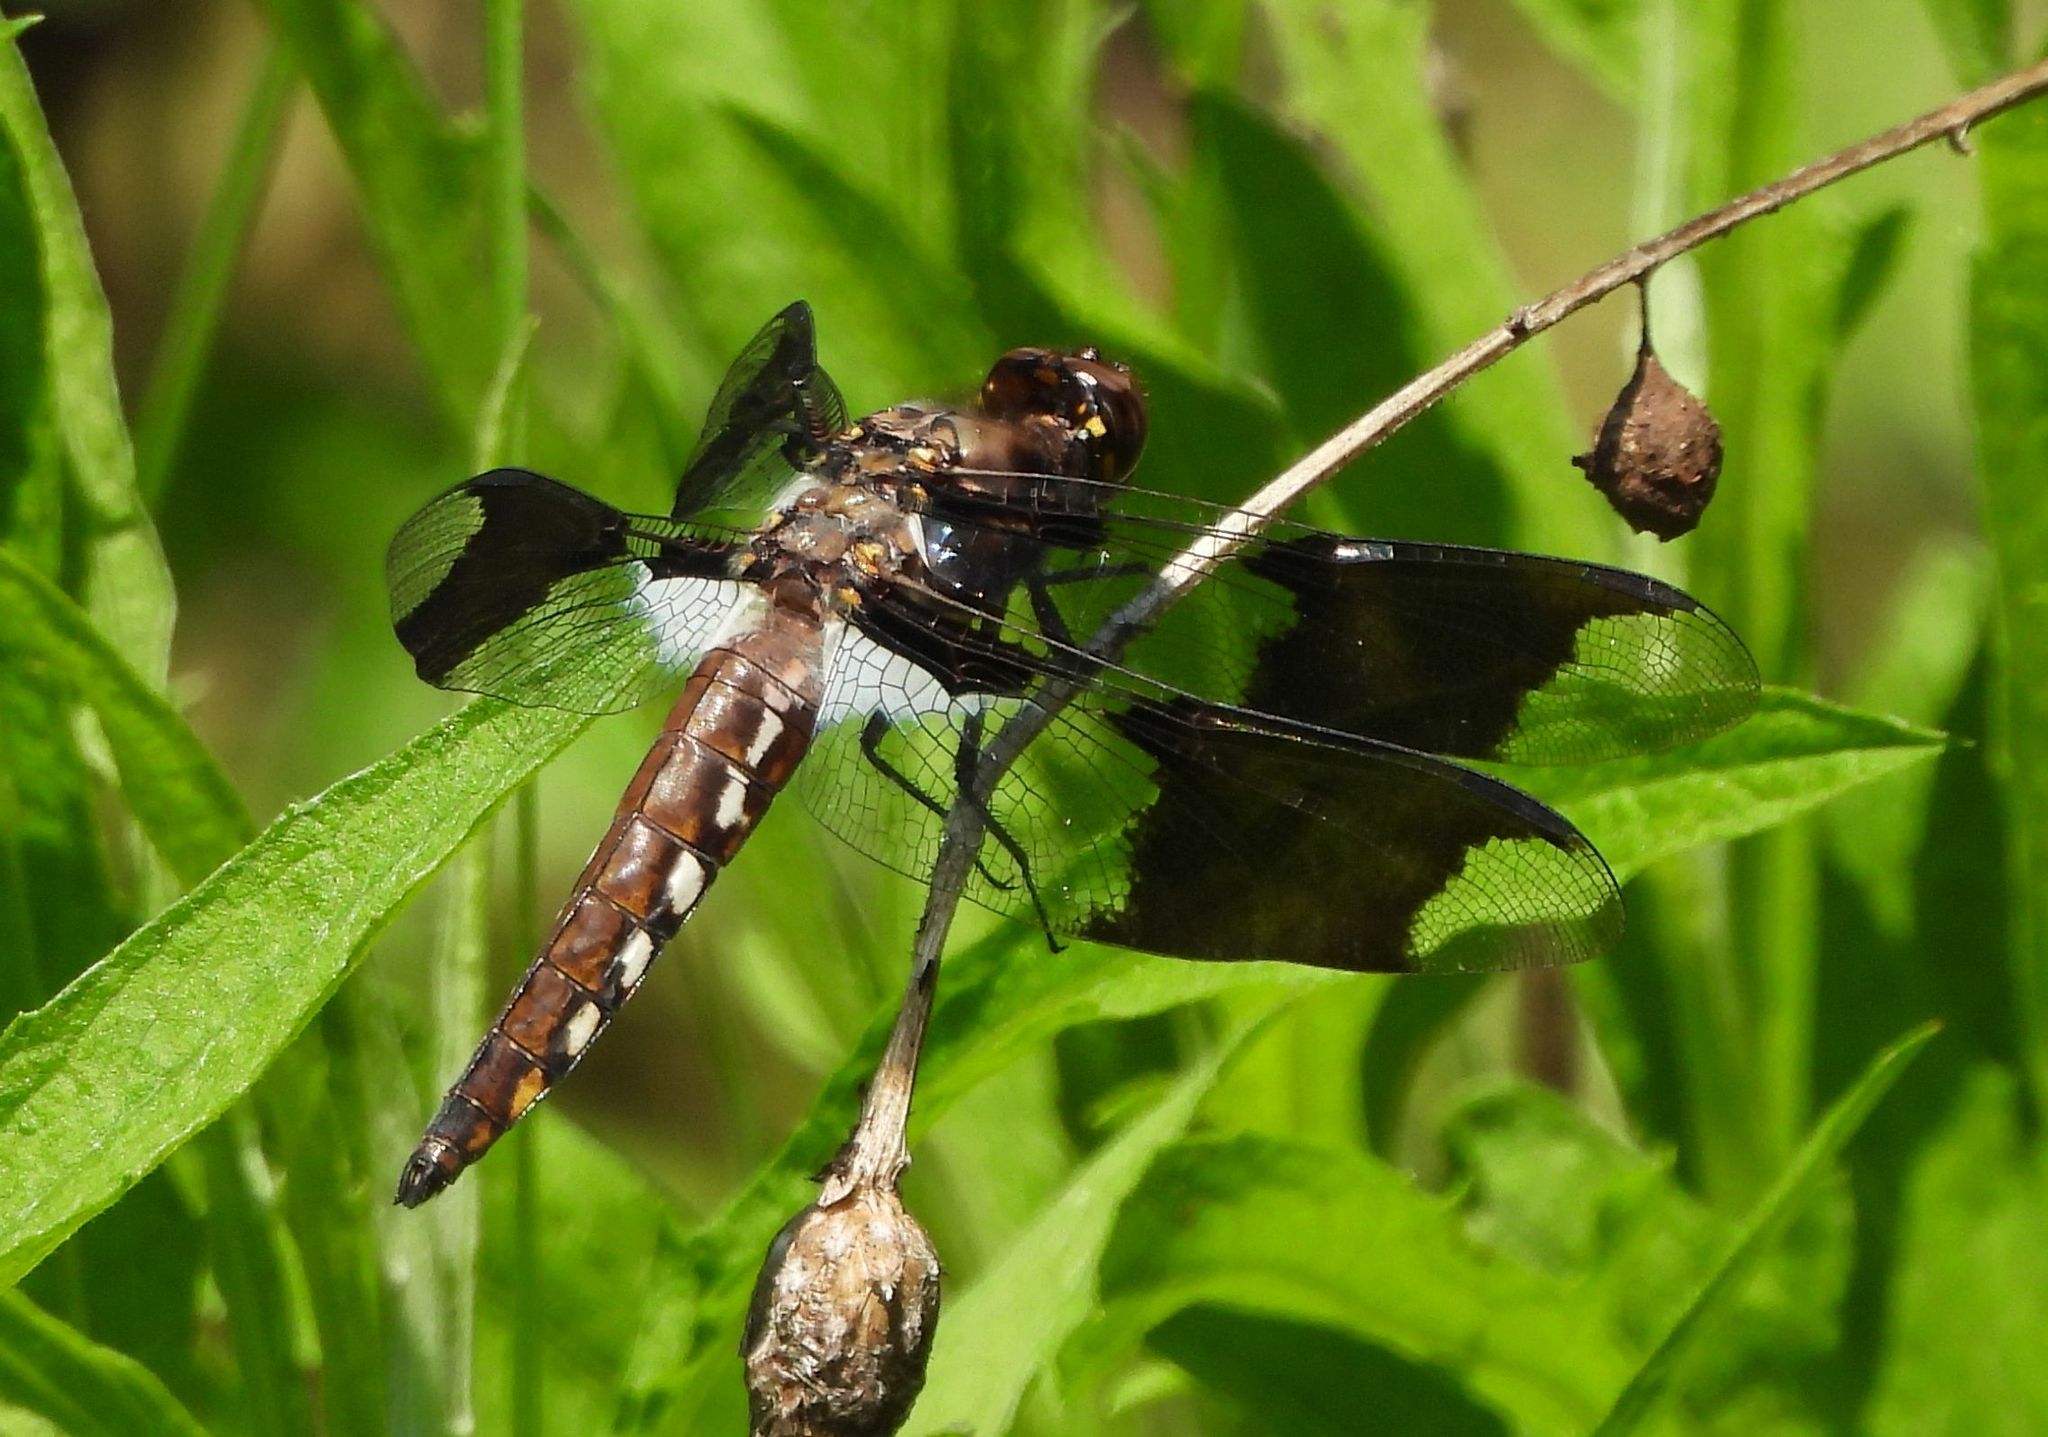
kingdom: Animalia
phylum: Arthropoda
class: Insecta
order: Odonata
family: Libellulidae
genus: Plathemis
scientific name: Plathemis lydia
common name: Common whitetail
